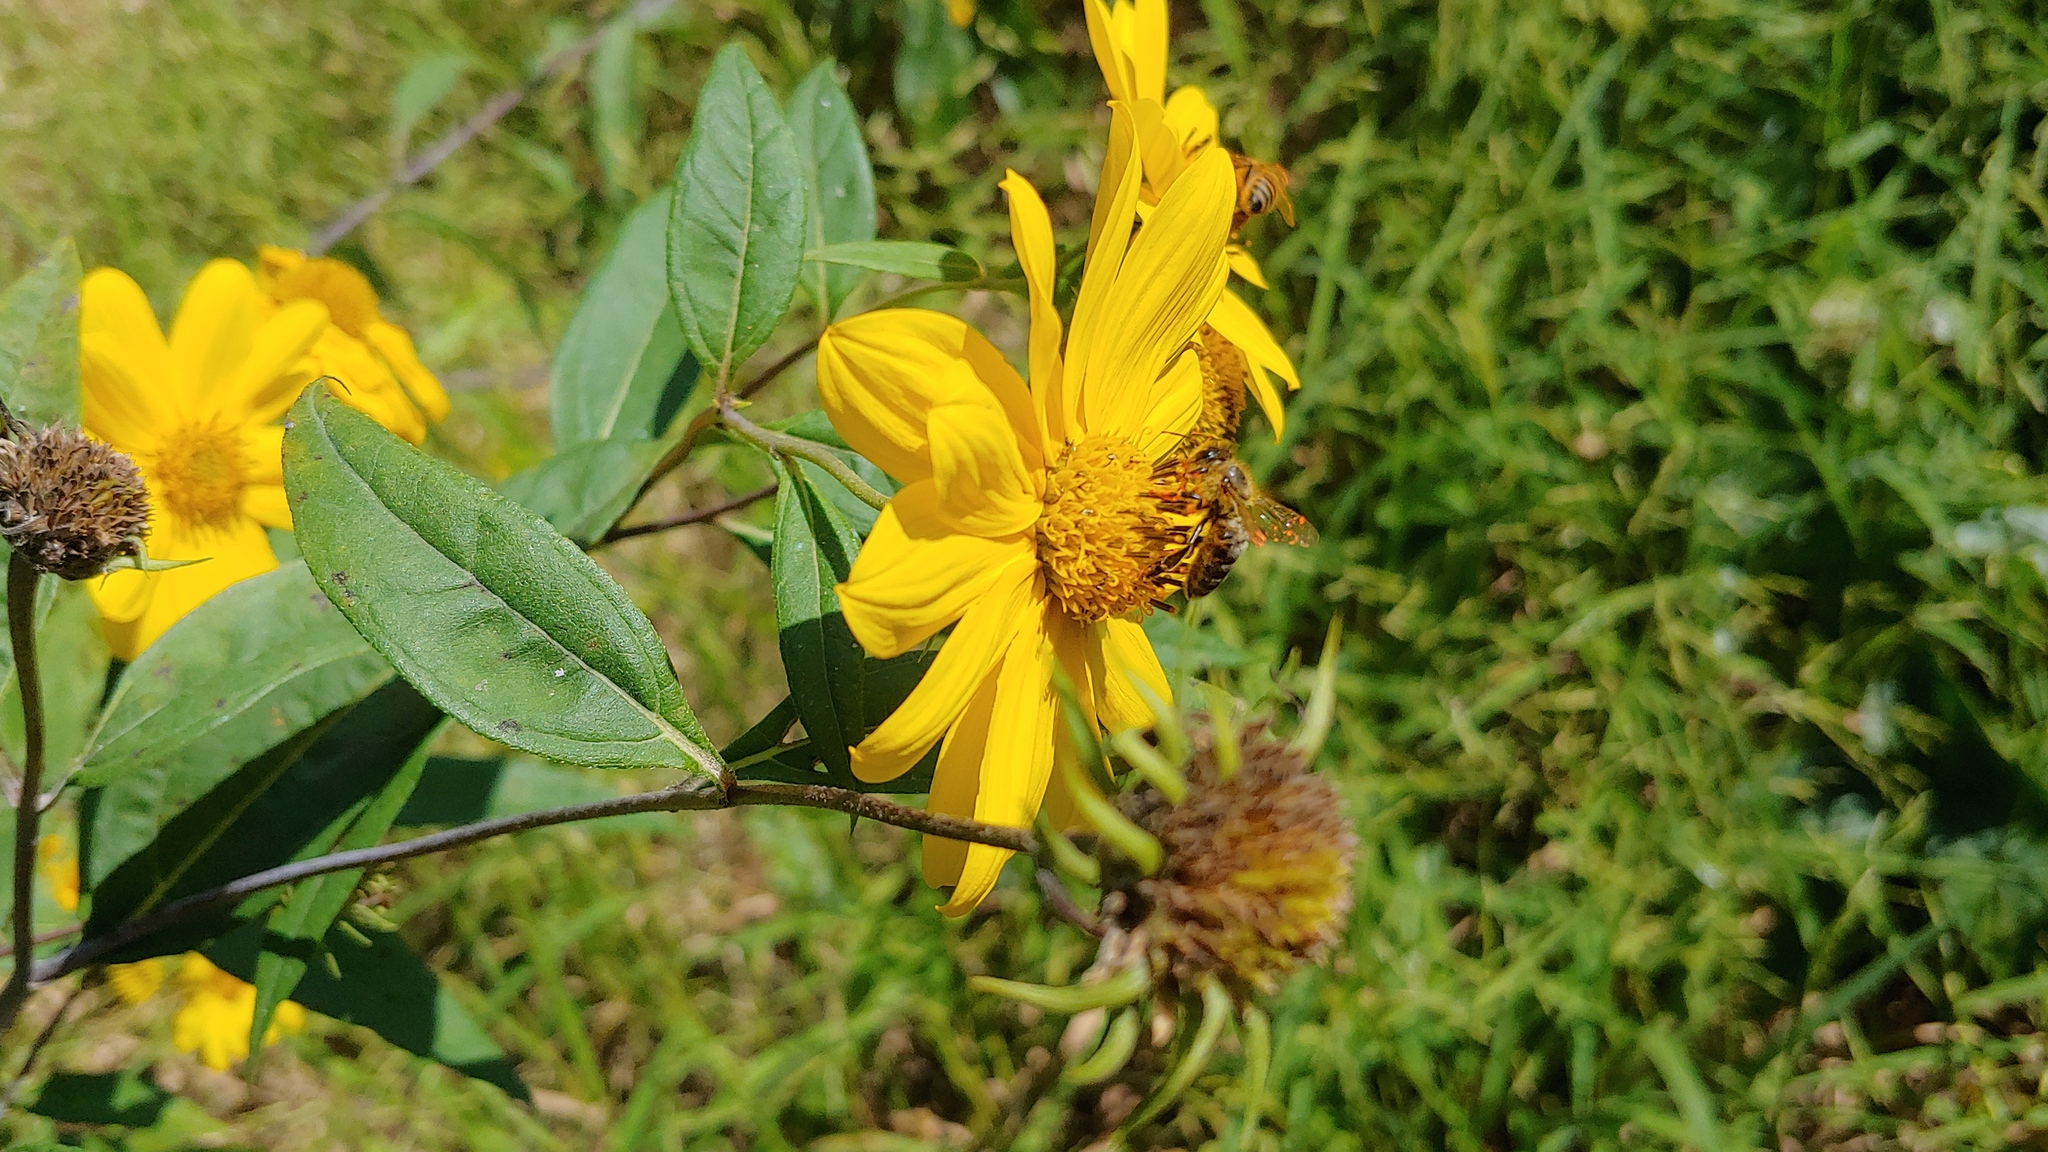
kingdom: Animalia
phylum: Arthropoda
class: Insecta
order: Hymenoptera
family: Apidae
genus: Apis
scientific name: Apis mellifera
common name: Honey bee
